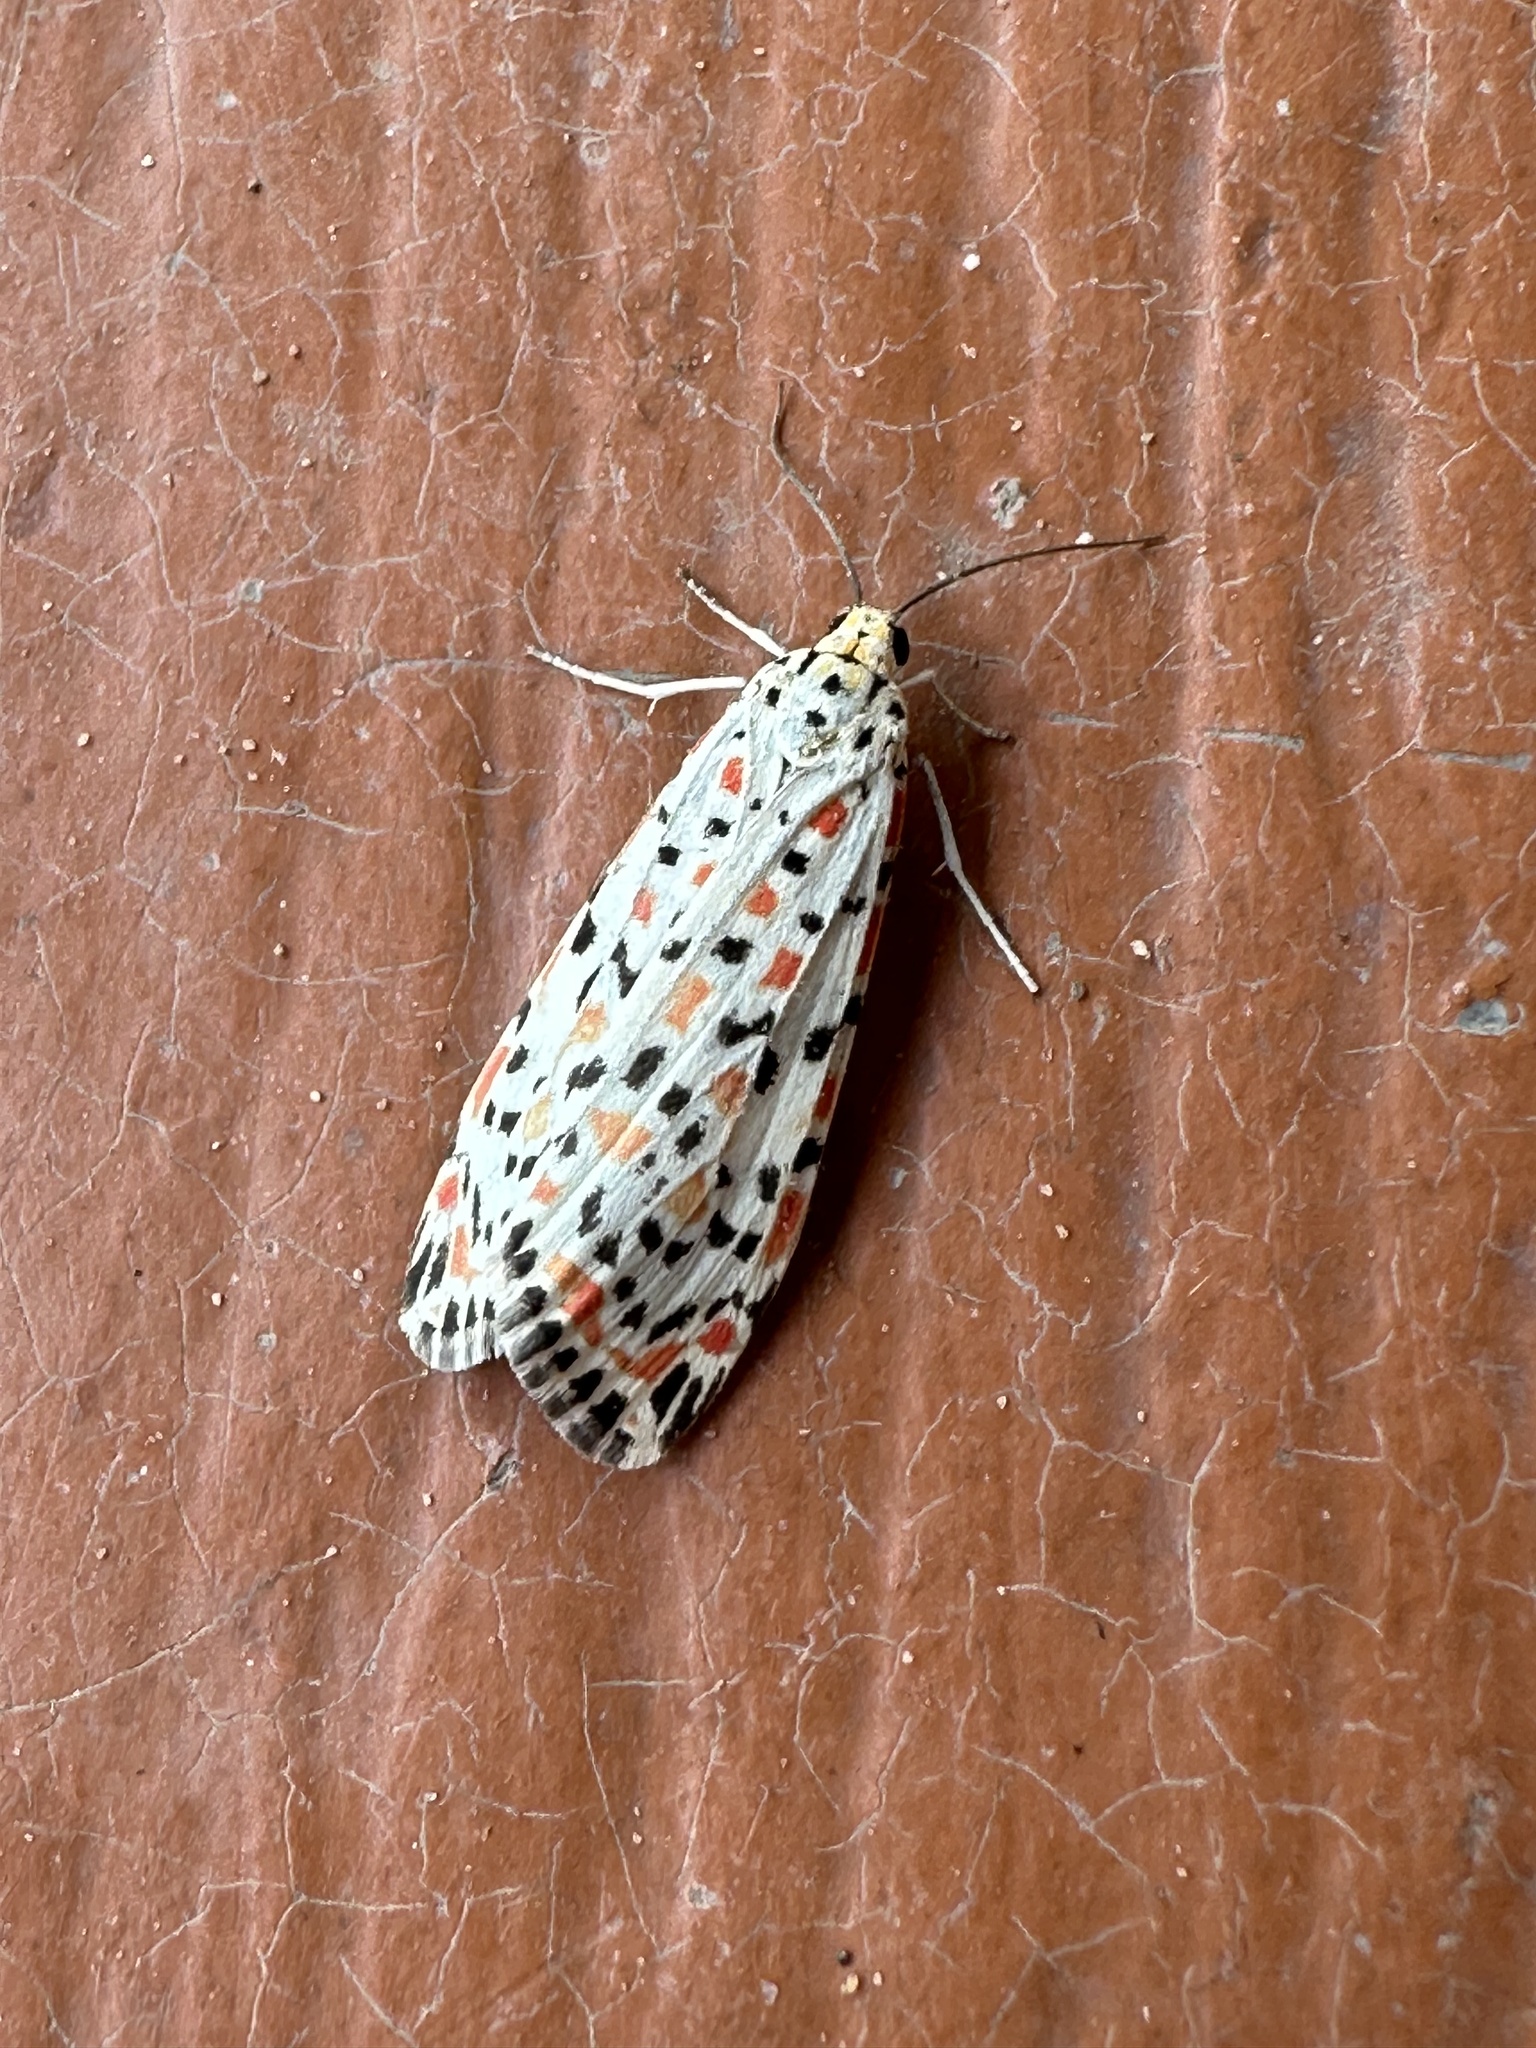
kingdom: Animalia
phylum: Arthropoda
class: Insecta
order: Lepidoptera
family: Erebidae
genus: Utetheisa
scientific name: Utetheisa pulchelloides
